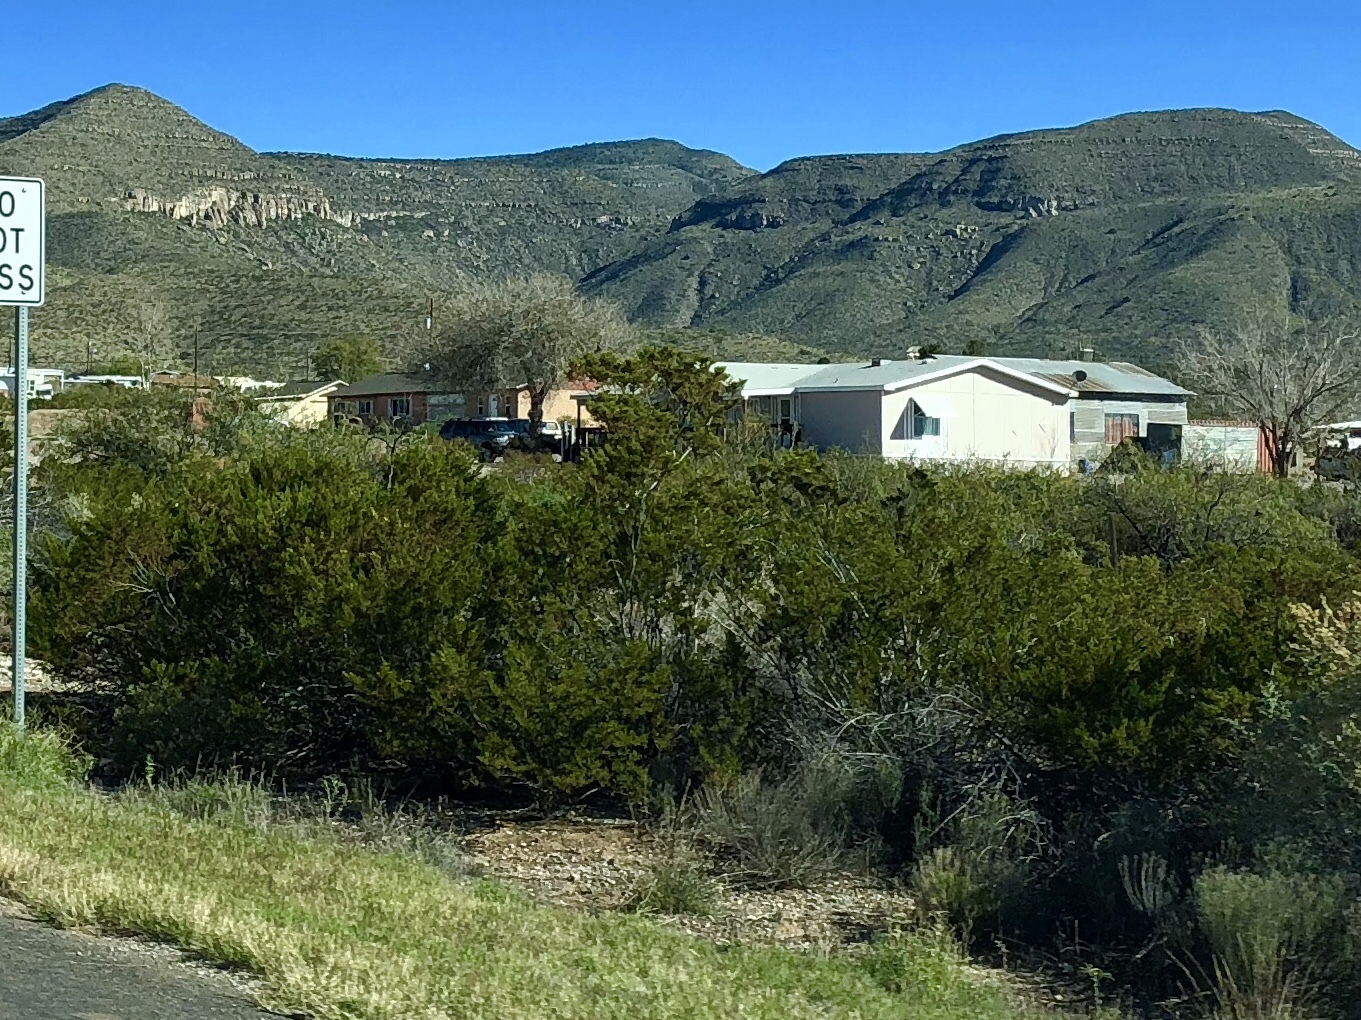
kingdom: Plantae
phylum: Tracheophyta
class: Magnoliopsida
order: Zygophyllales
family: Zygophyllaceae
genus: Larrea
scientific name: Larrea tridentata
